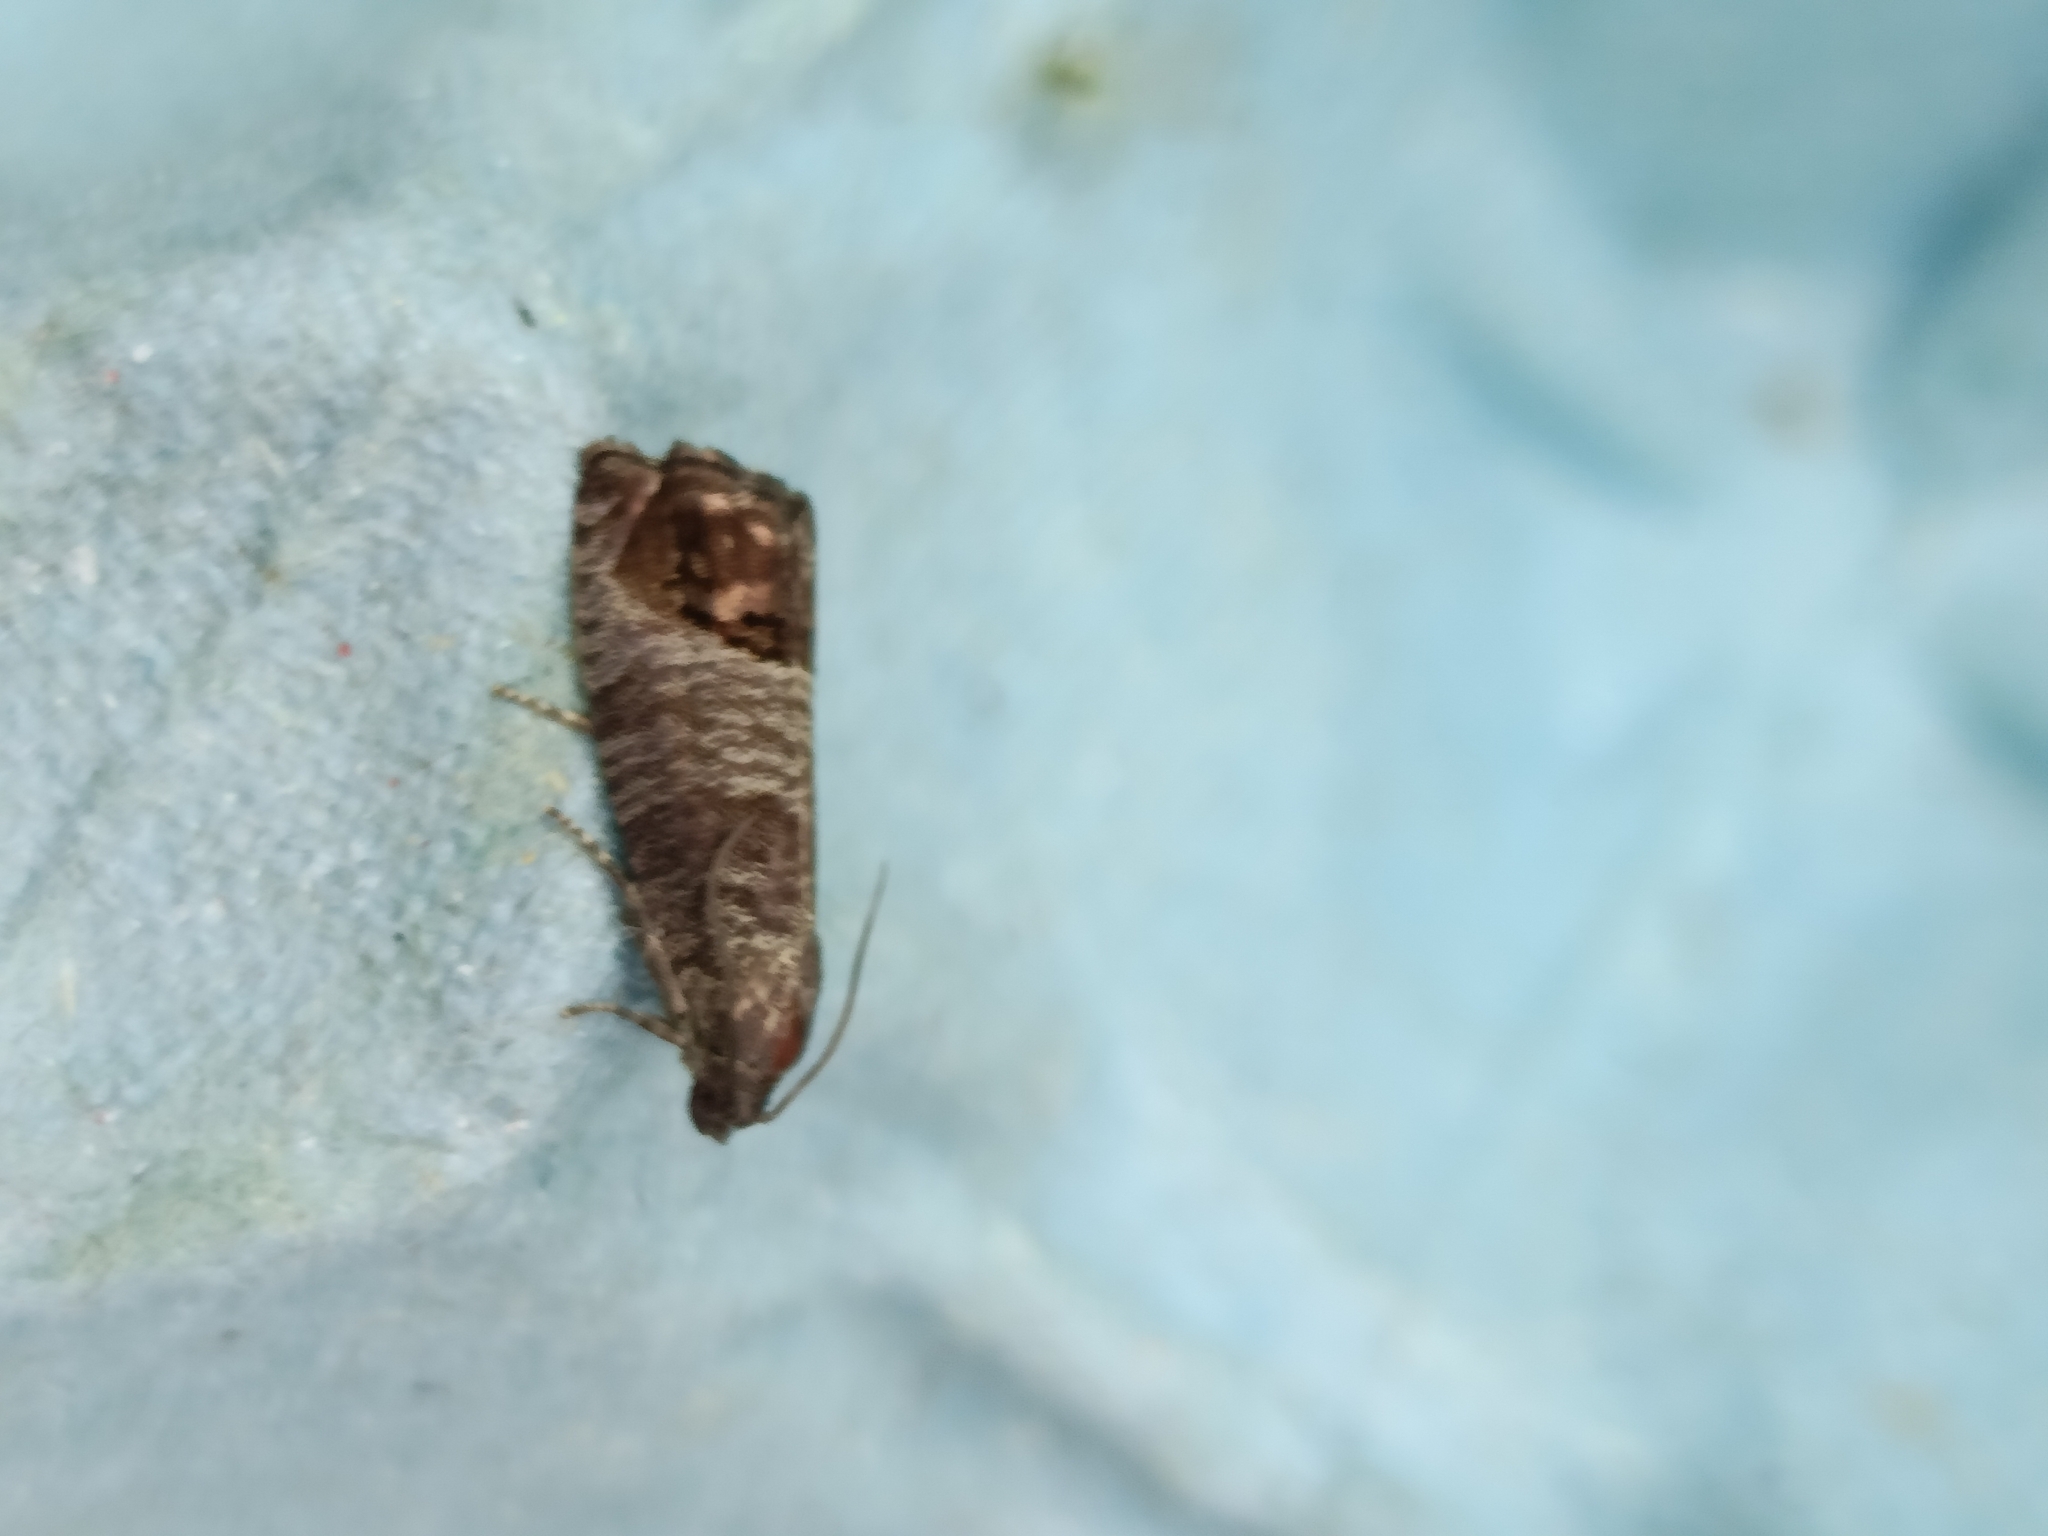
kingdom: Animalia
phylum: Arthropoda
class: Insecta
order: Lepidoptera
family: Tortricidae
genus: Cydia
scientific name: Cydia pomonella
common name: Codling moth
